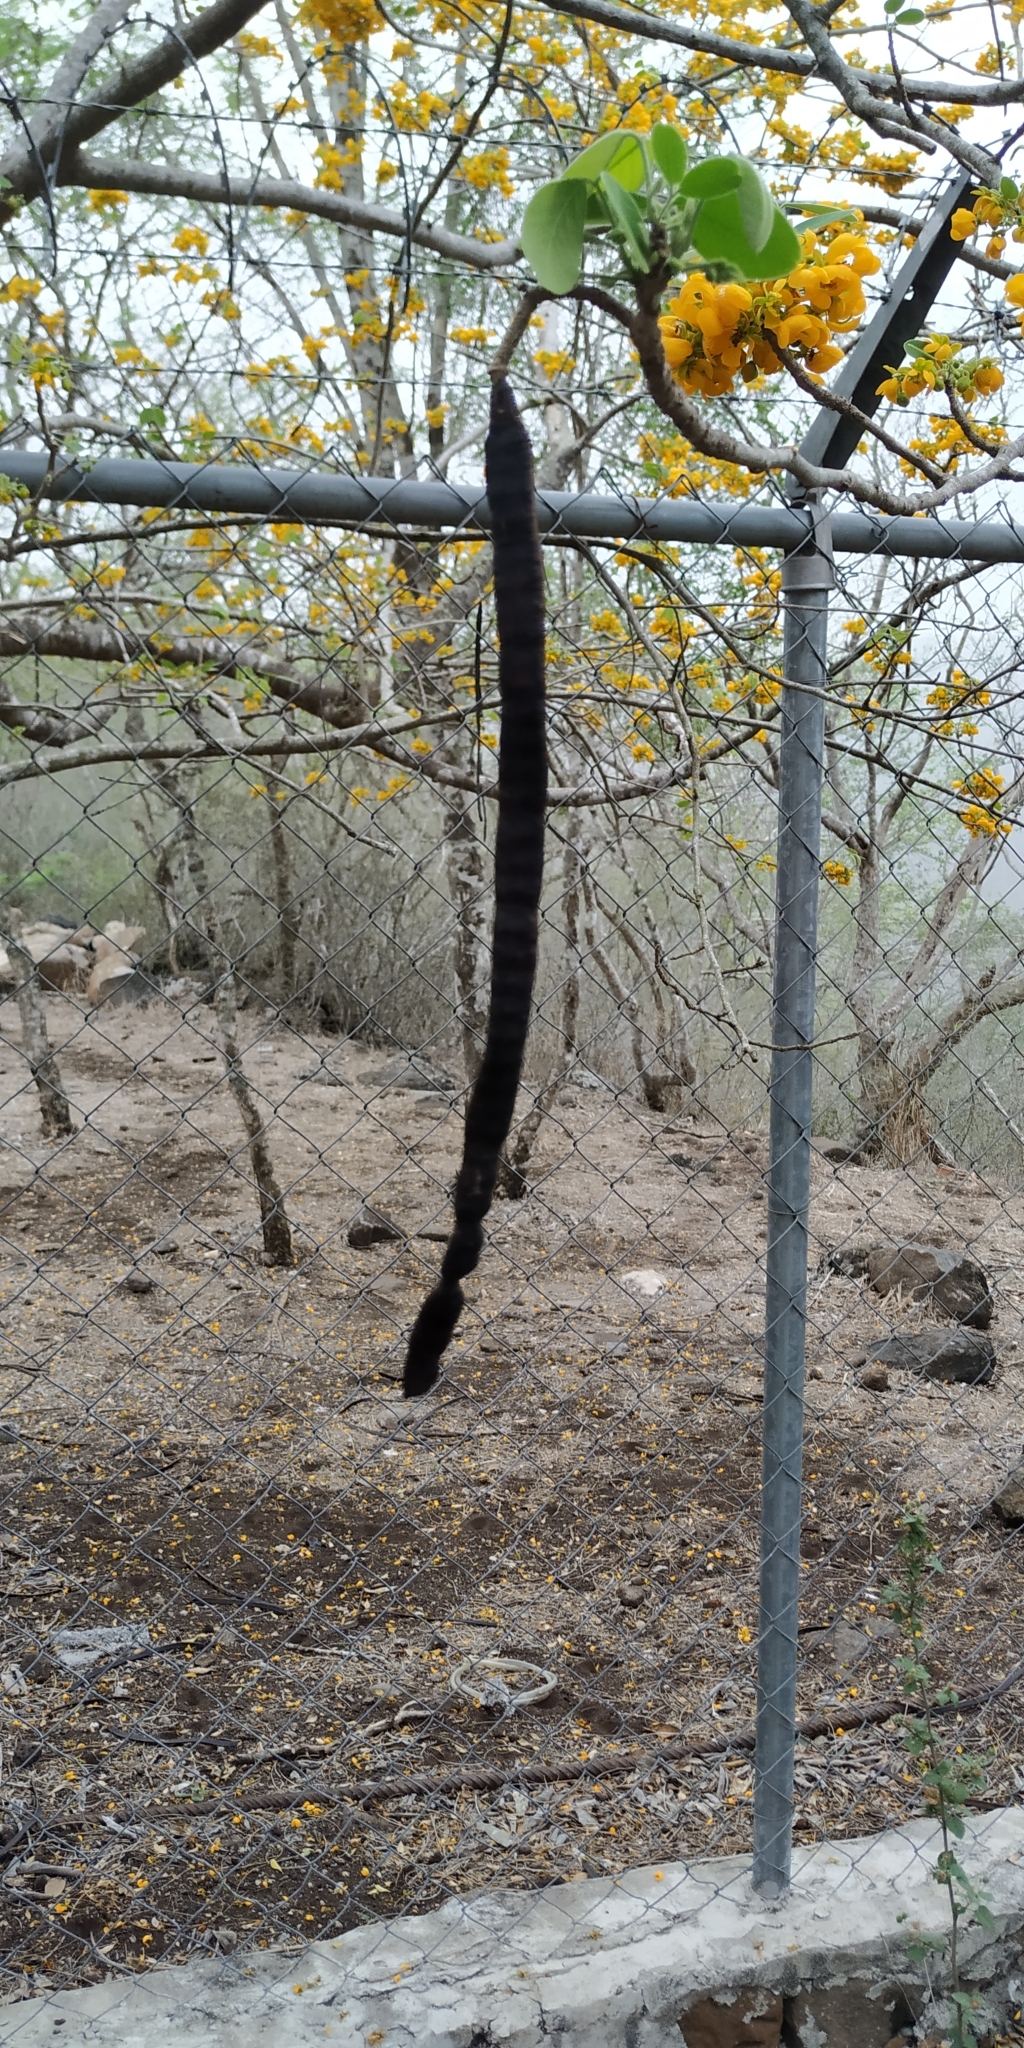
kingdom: Plantae
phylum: Tracheophyta
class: Magnoliopsida
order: Fabales
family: Fabaceae
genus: Senna
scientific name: Senna atomaria
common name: Flor de san jose
